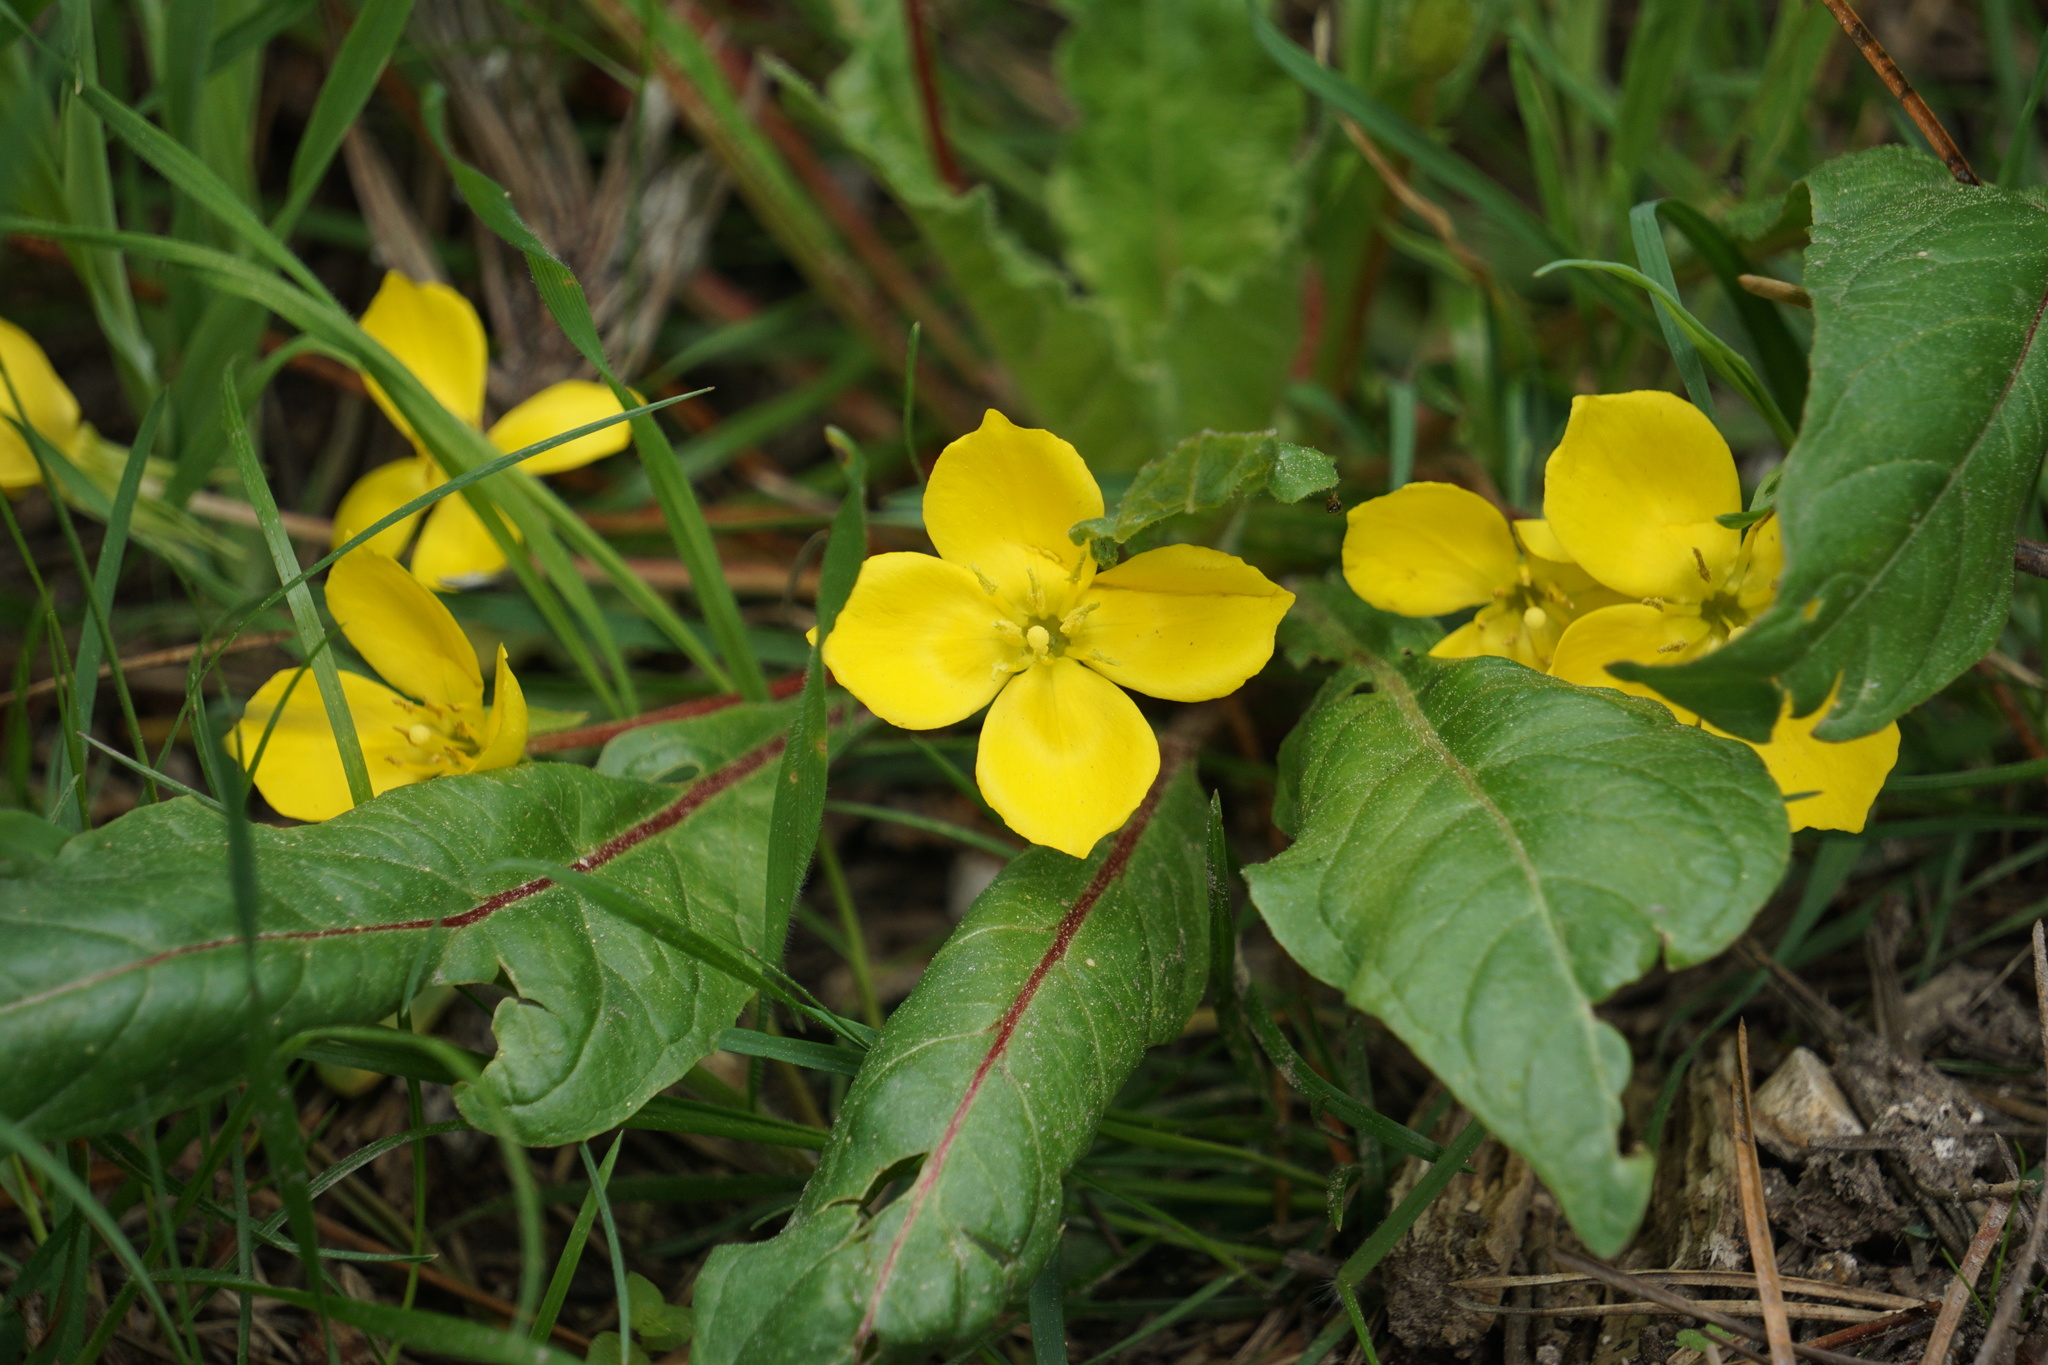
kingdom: Plantae
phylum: Tracheophyta
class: Magnoliopsida
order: Myrtales
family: Onagraceae
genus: Taraxia
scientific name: Taraxia ovata
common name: Goldeneggs
